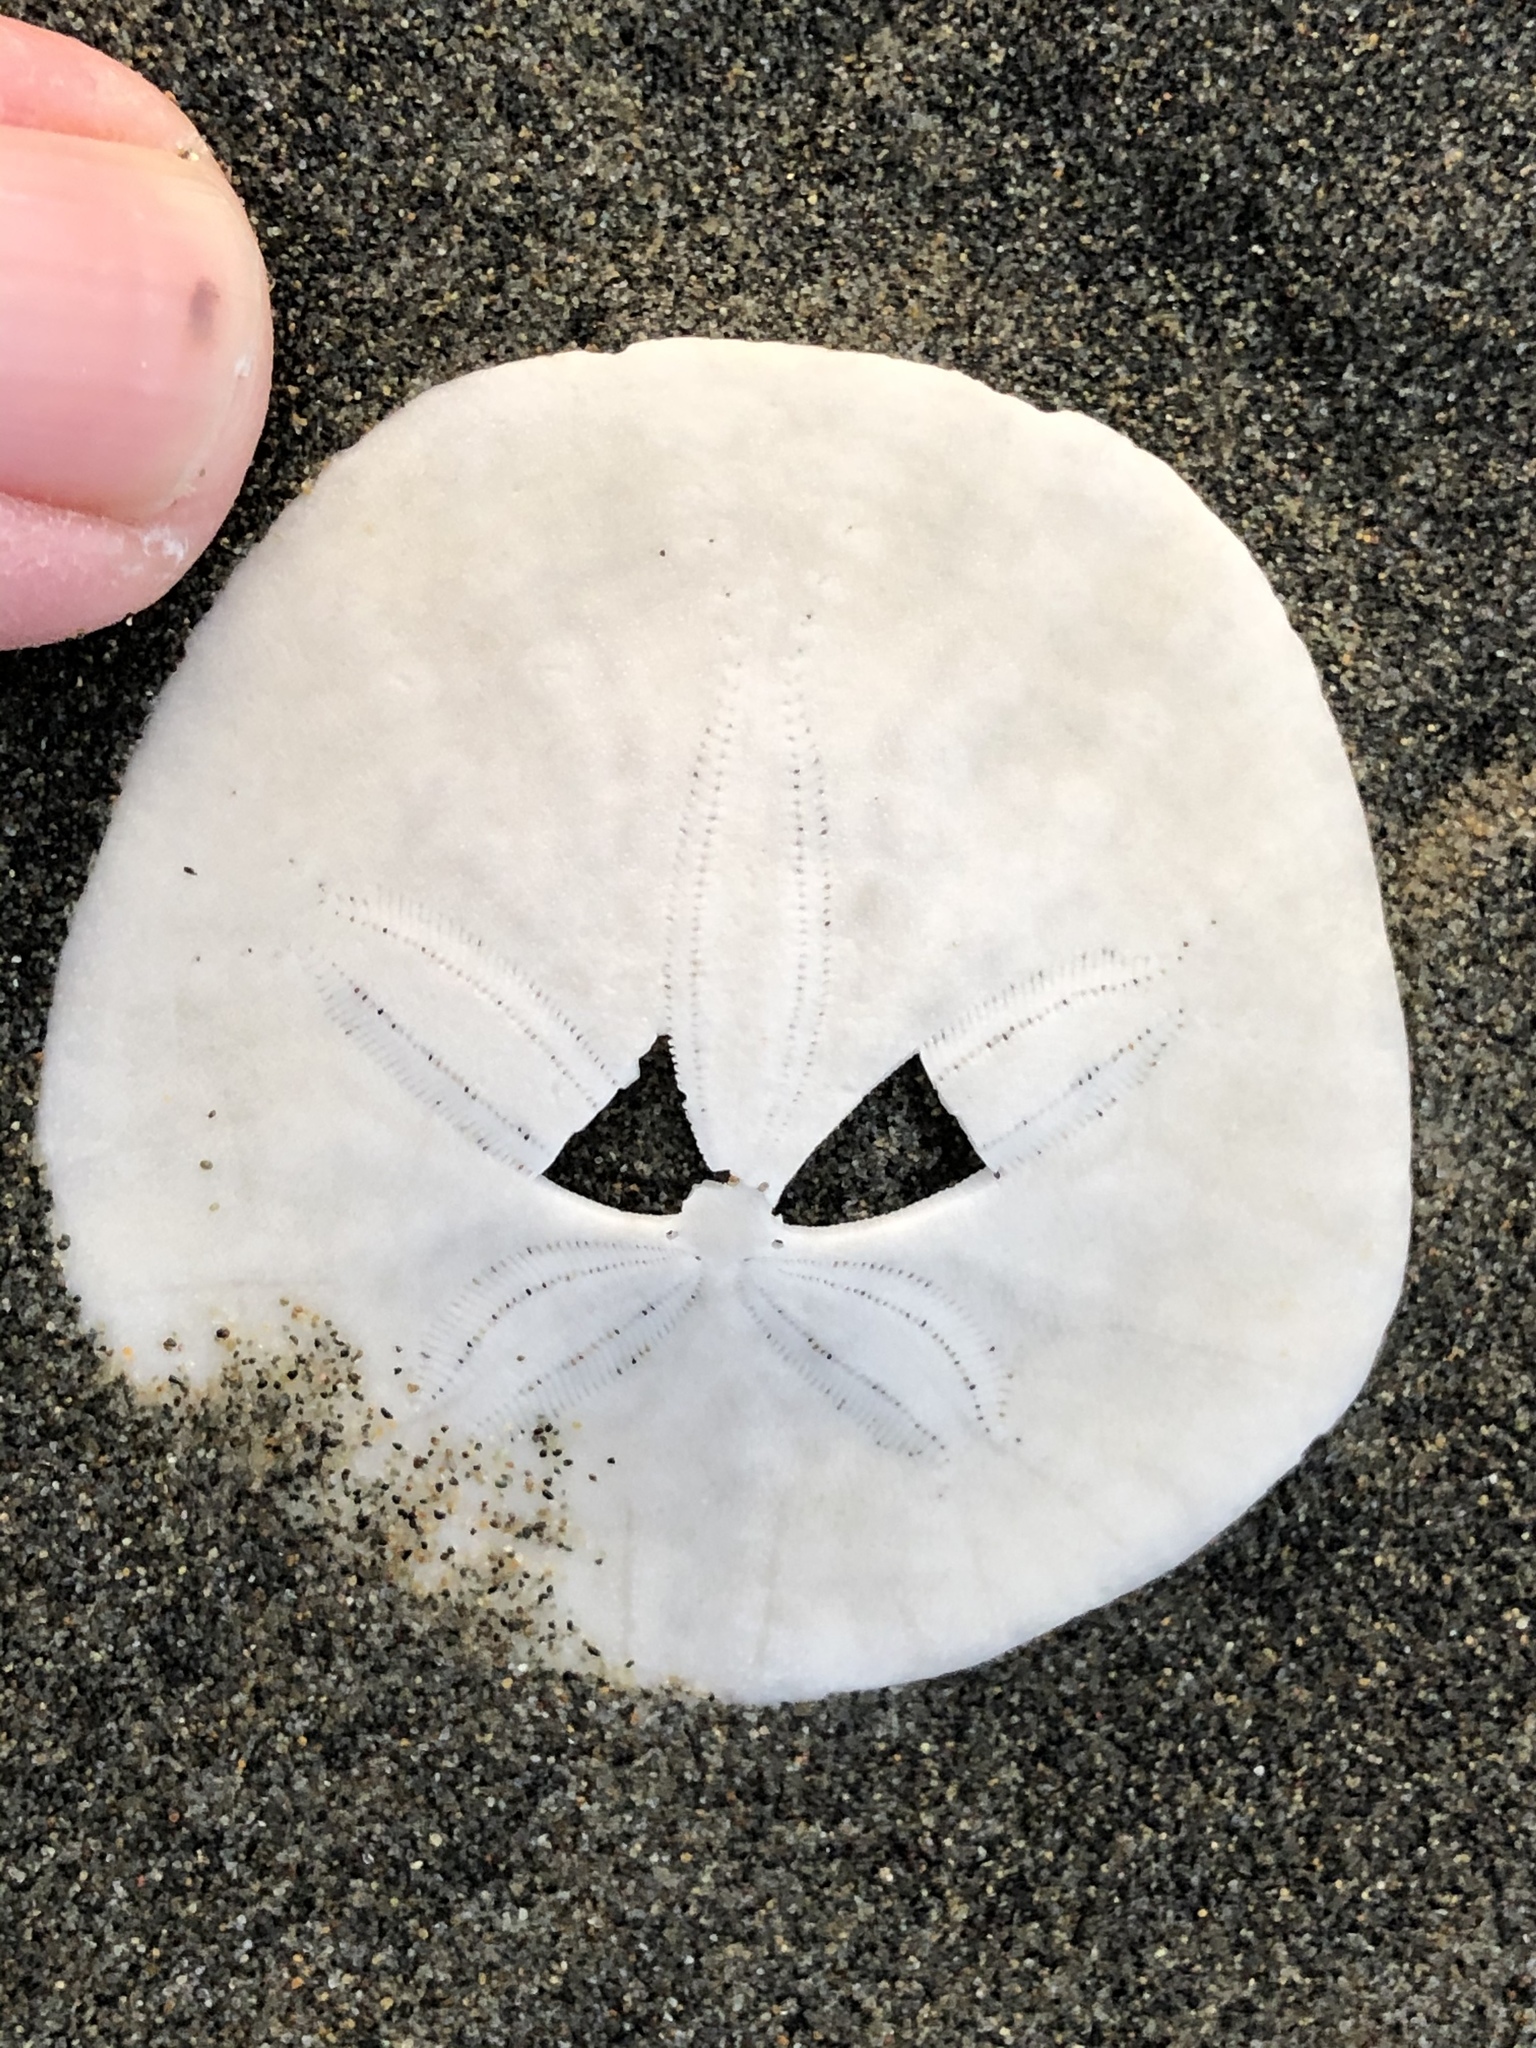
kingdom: Animalia
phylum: Echinodermata
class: Echinoidea
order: Echinolampadacea
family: Dendrasteridae
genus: Dendraster
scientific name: Dendraster excentricus
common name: Eccentric sand dollar sea urchin
